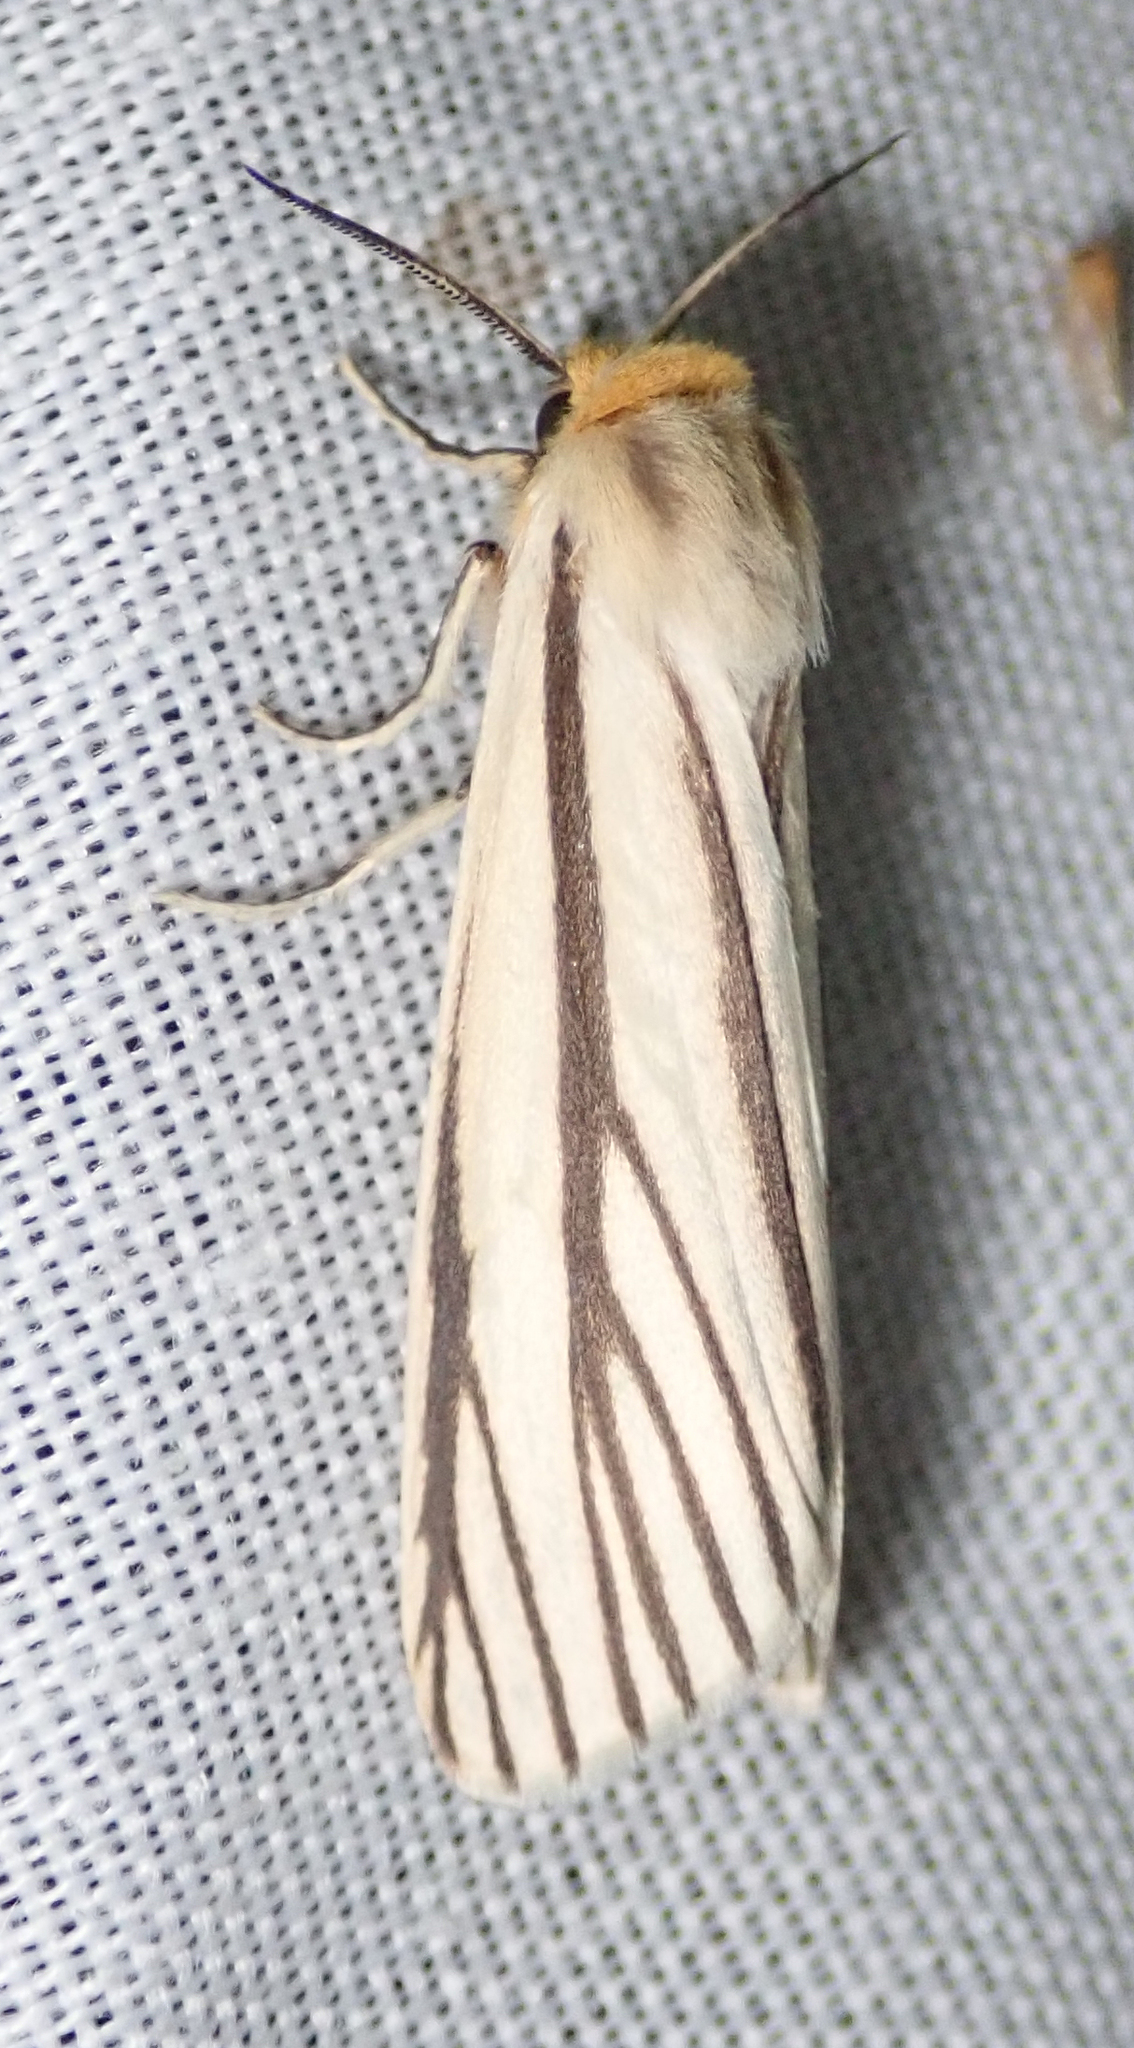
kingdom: Animalia
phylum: Arthropoda
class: Insecta
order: Lepidoptera
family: Erebidae
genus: Poecilarctia
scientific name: Poecilarctia venata
